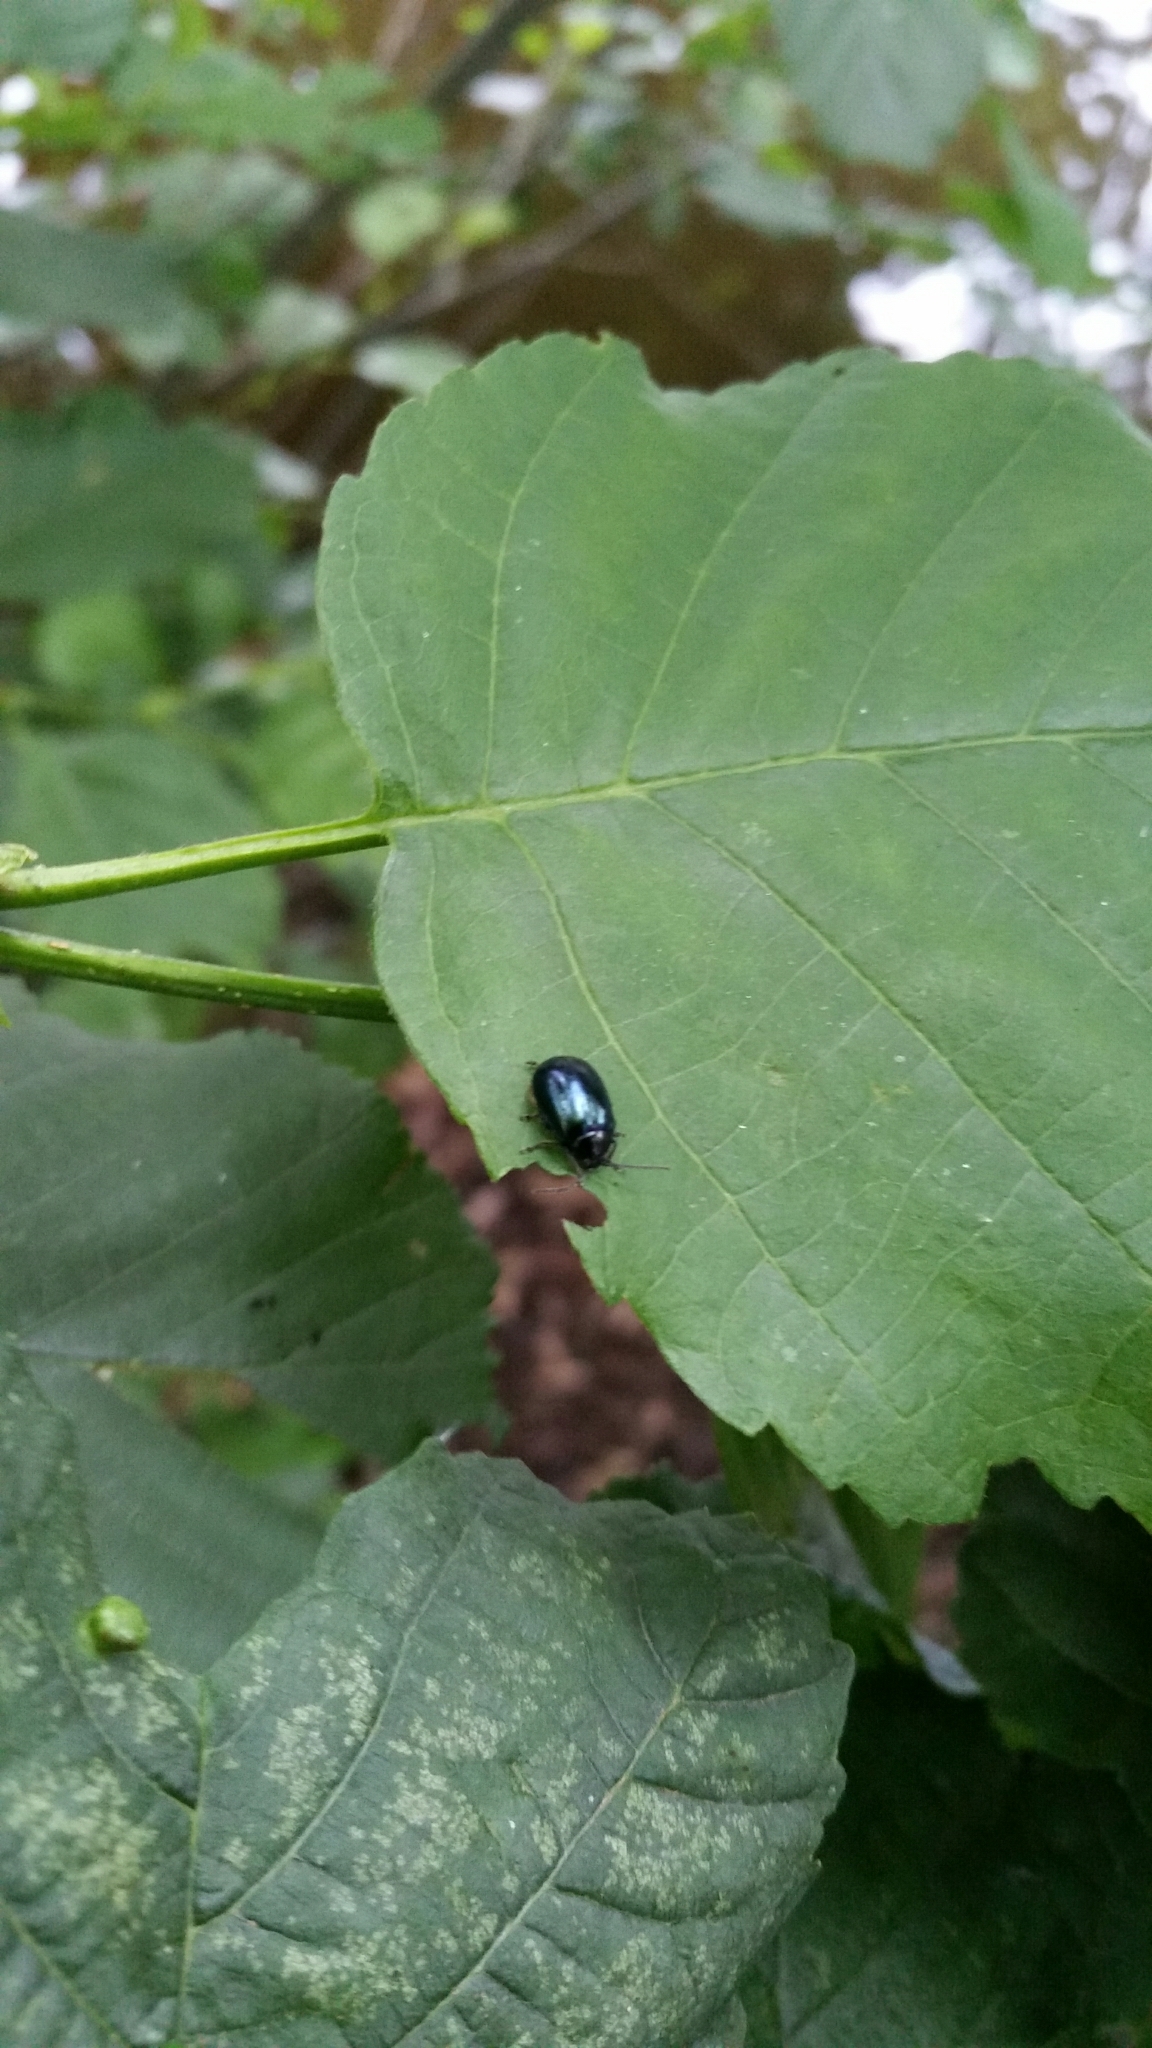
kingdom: Animalia
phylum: Arthropoda
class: Insecta
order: Coleoptera
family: Chrysomelidae
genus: Agelastica
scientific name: Agelastica alni
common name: Alder leaf beetle
